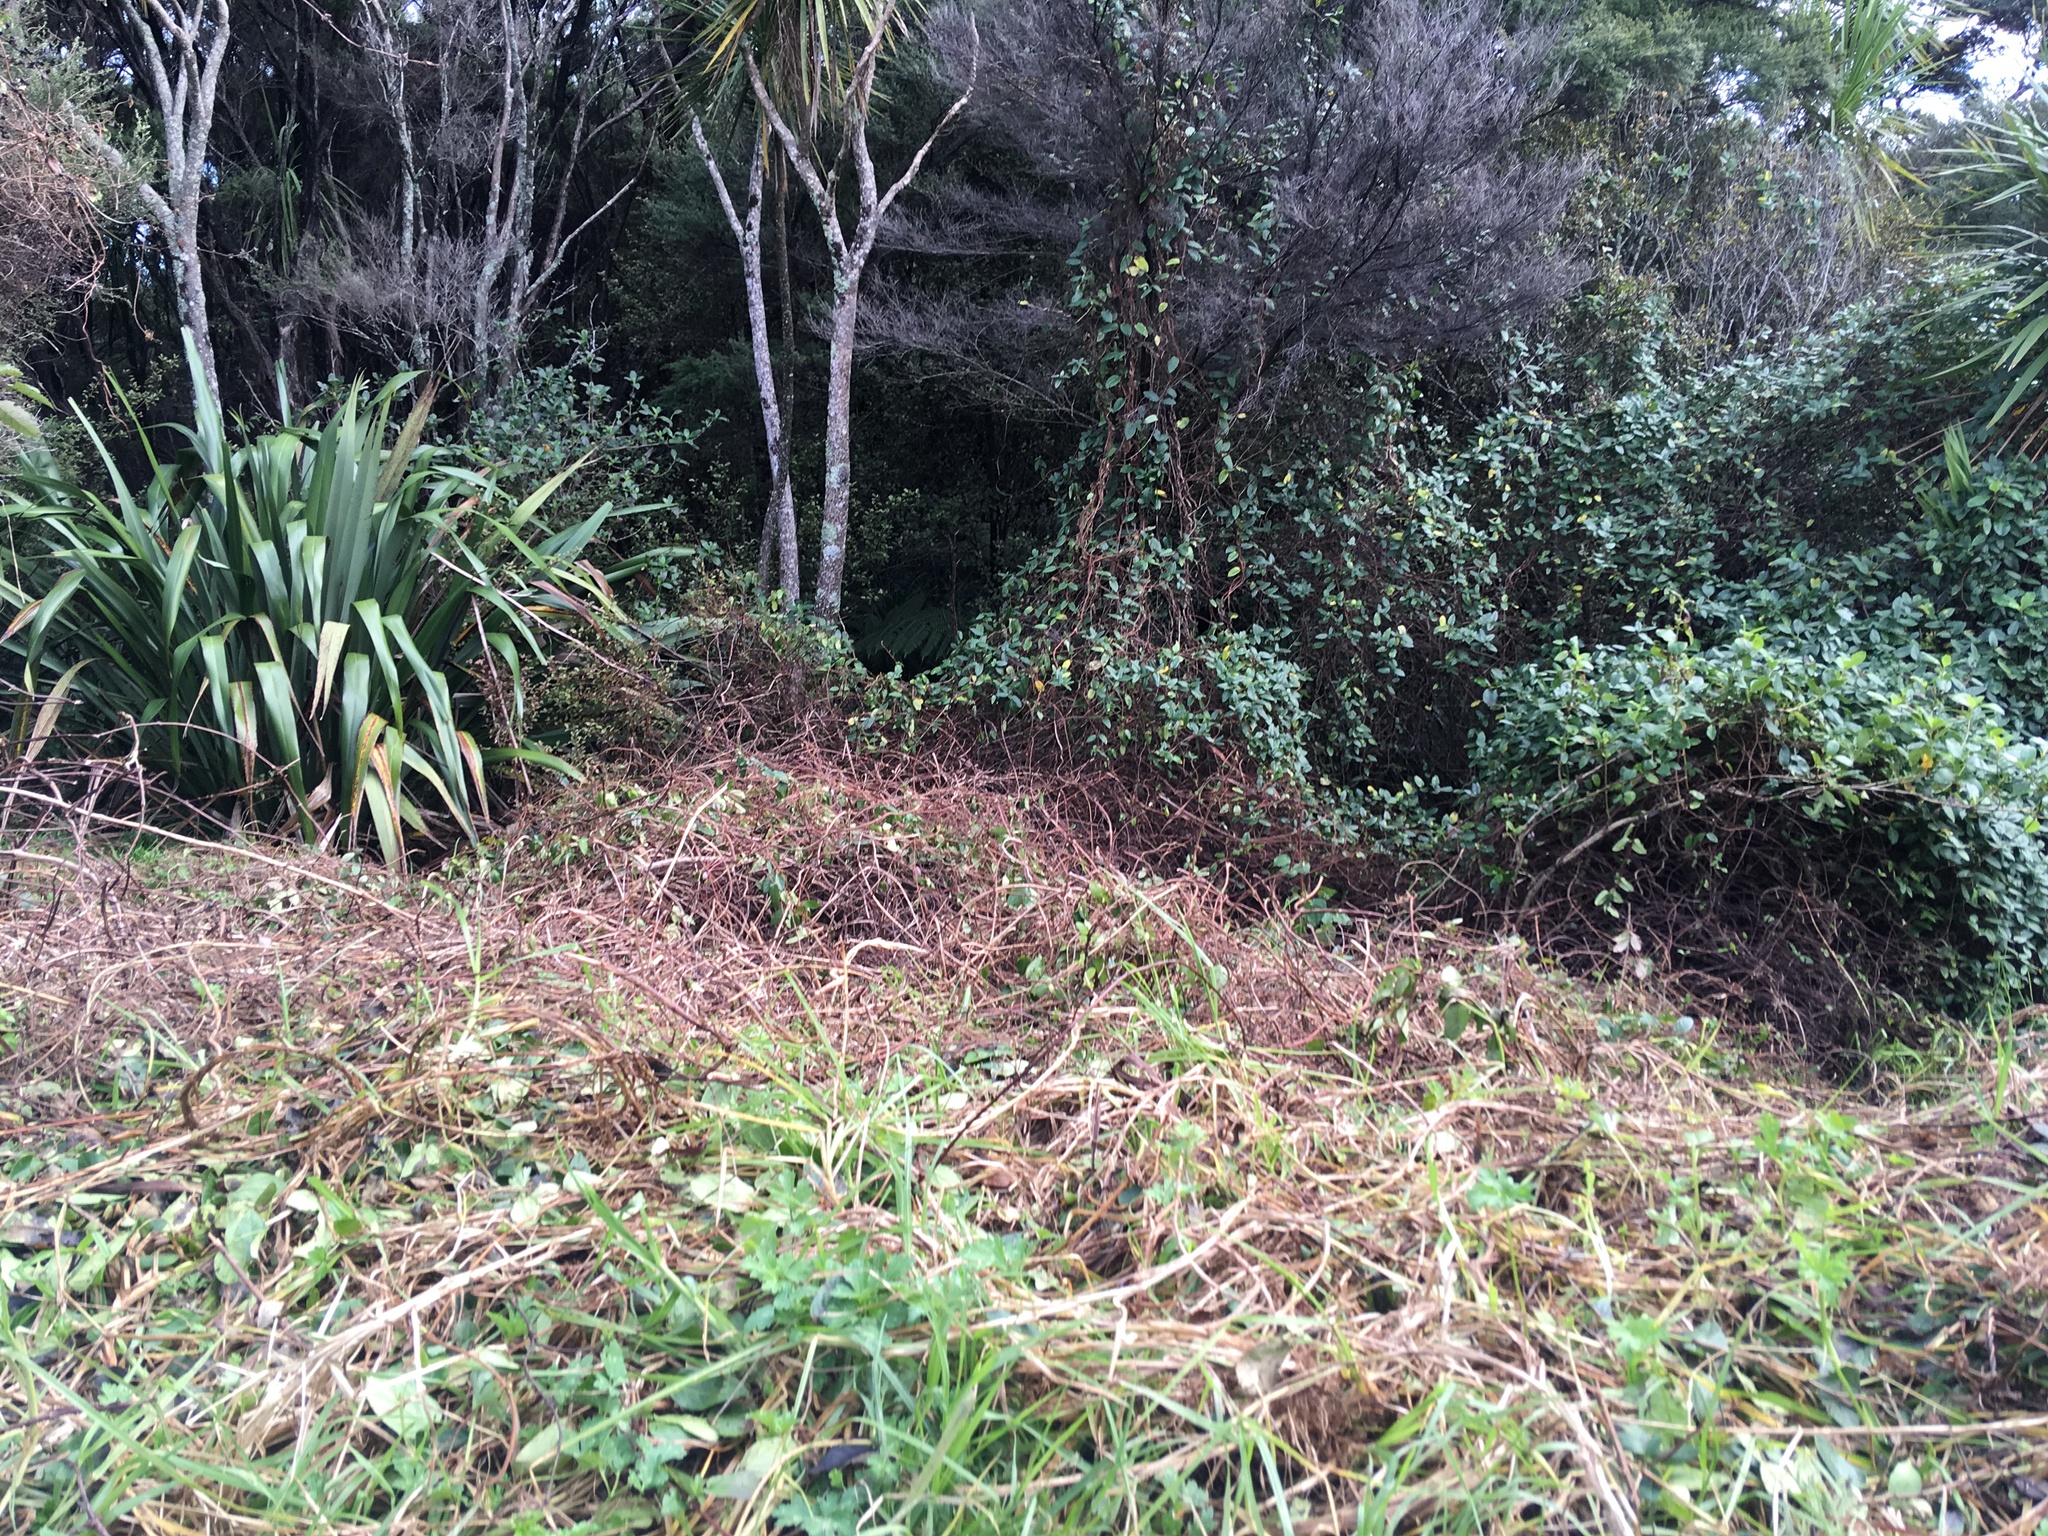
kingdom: Plantae
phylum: Tracheophyta
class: Liliopsida
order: Poales
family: Poaceae
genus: Cenchrus
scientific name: Cenchrus clandestinus
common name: Kikuyugrass
